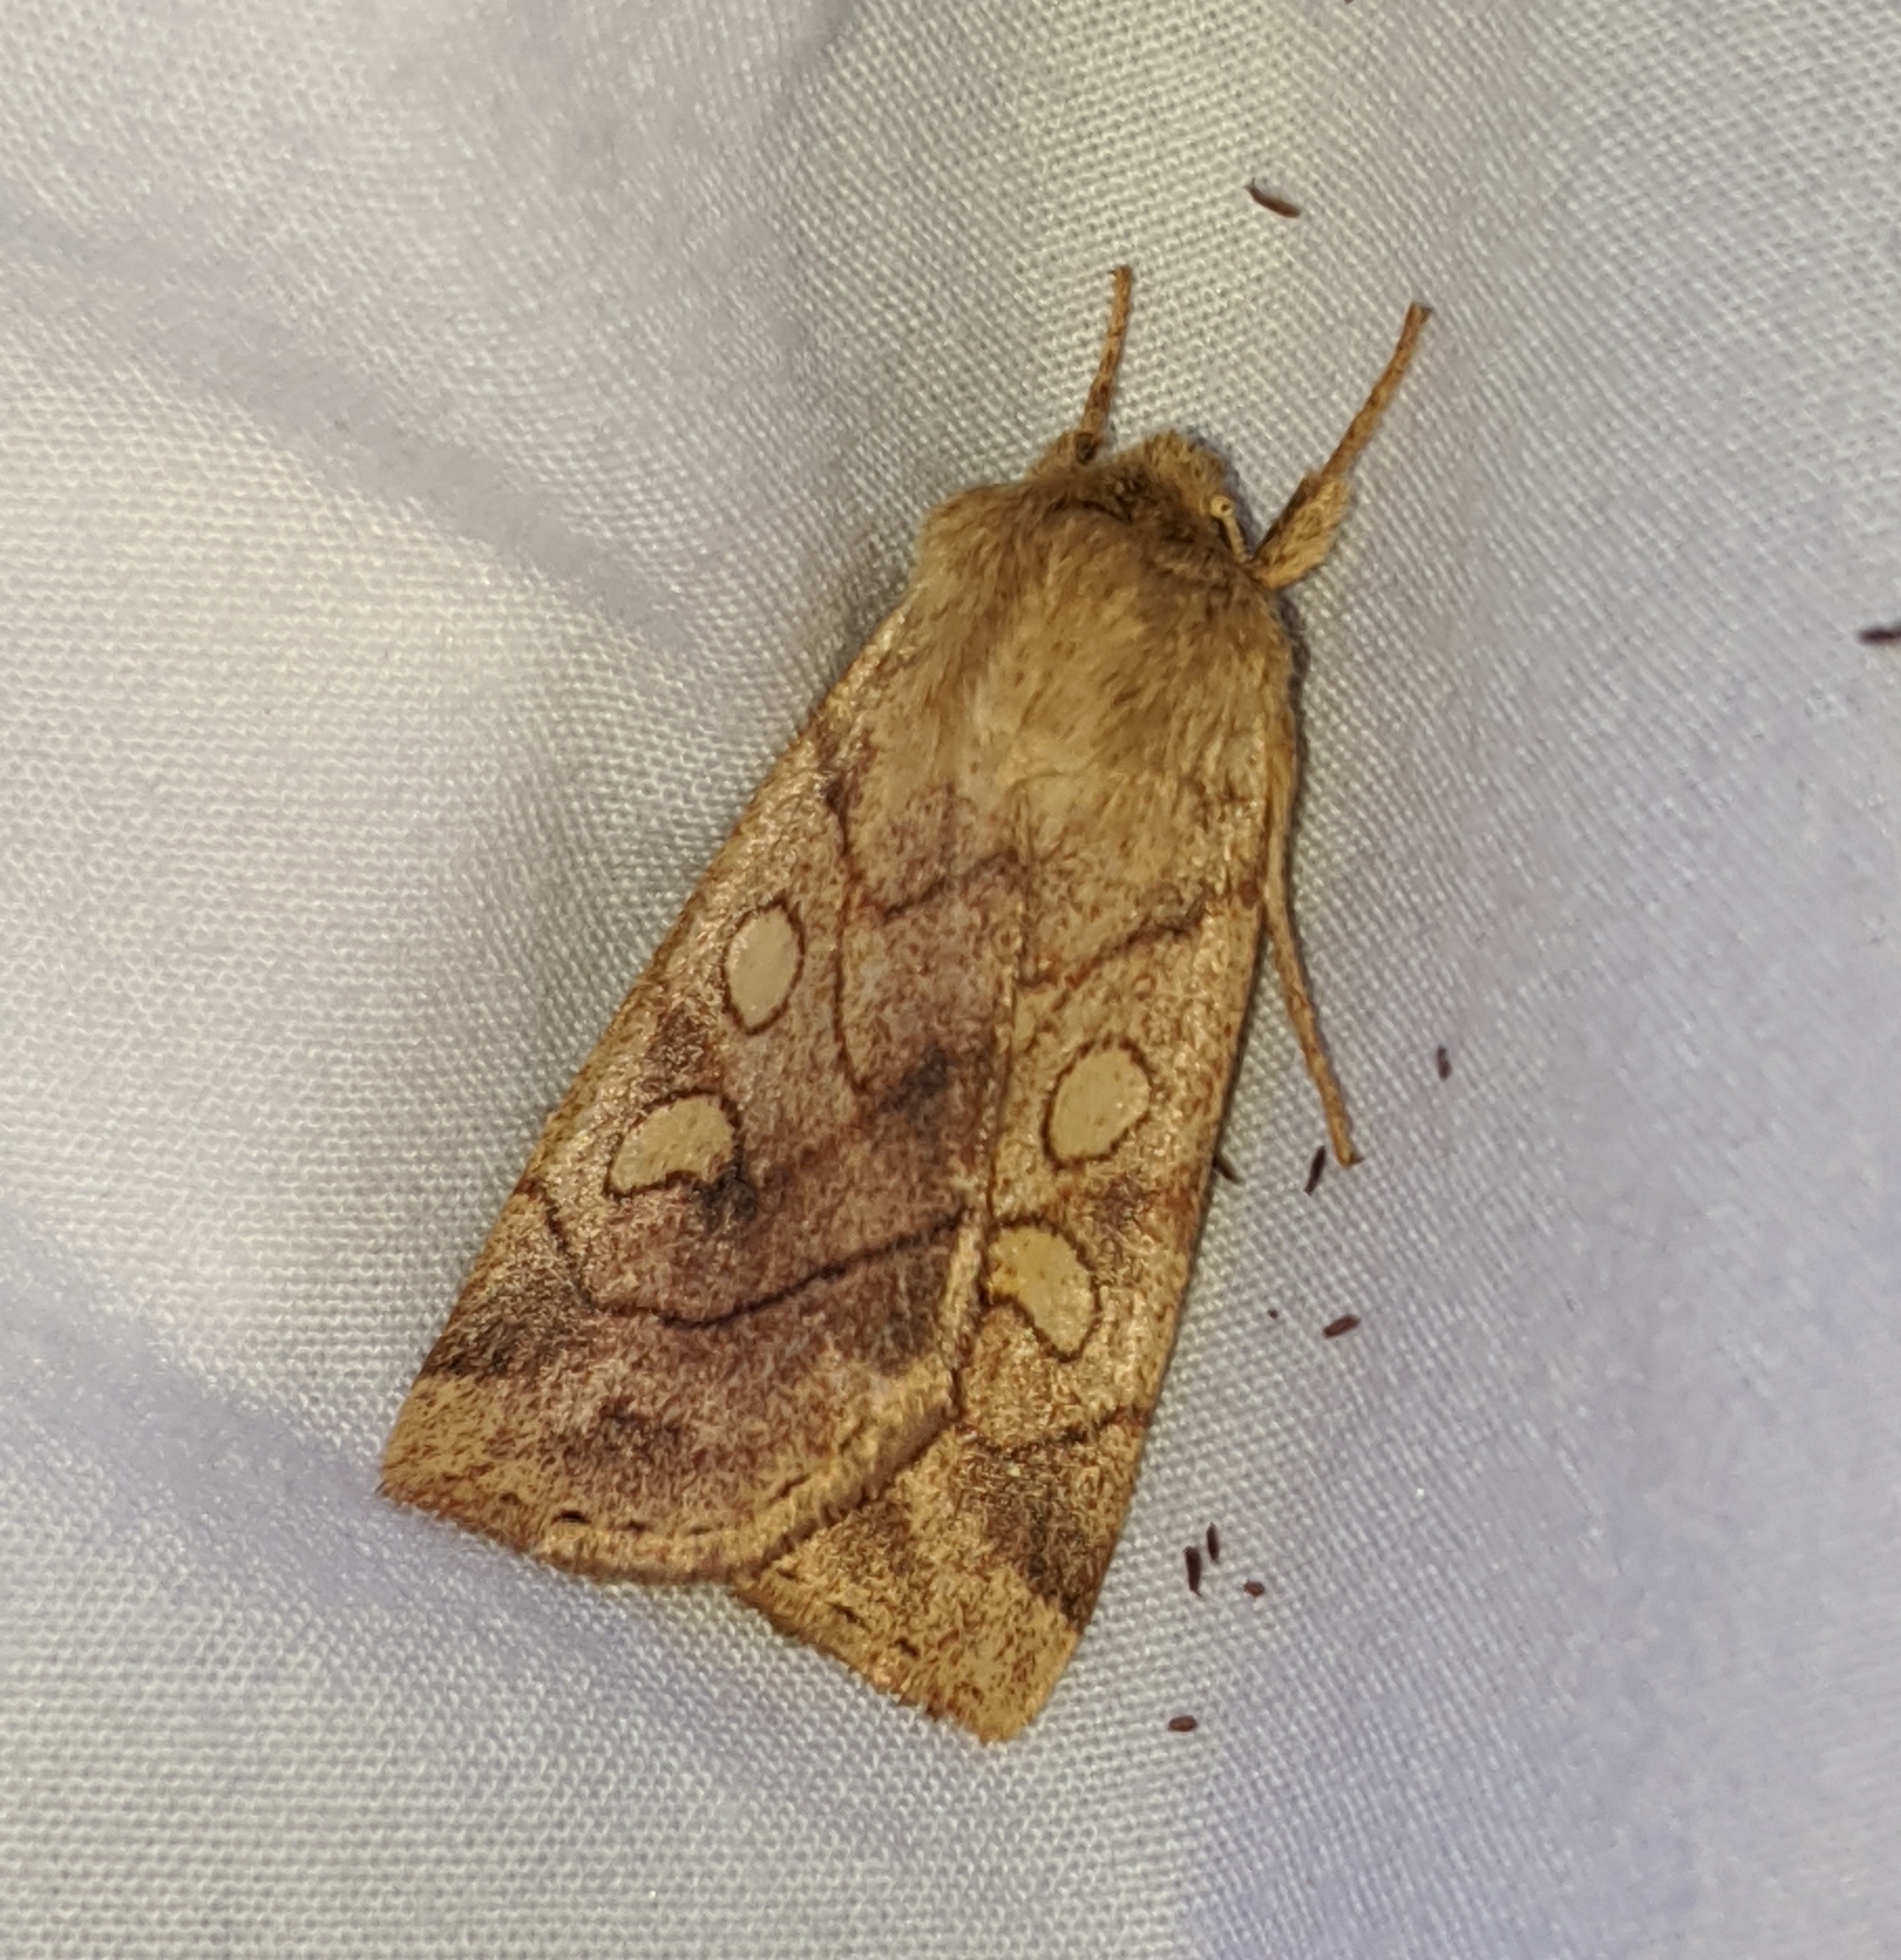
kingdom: Animalia
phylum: Arthropoda
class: Insecta
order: Lepidoptera
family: Noctuidae
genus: Enargia
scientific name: Enargia decolor
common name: Aspen twoleaf tier moth
